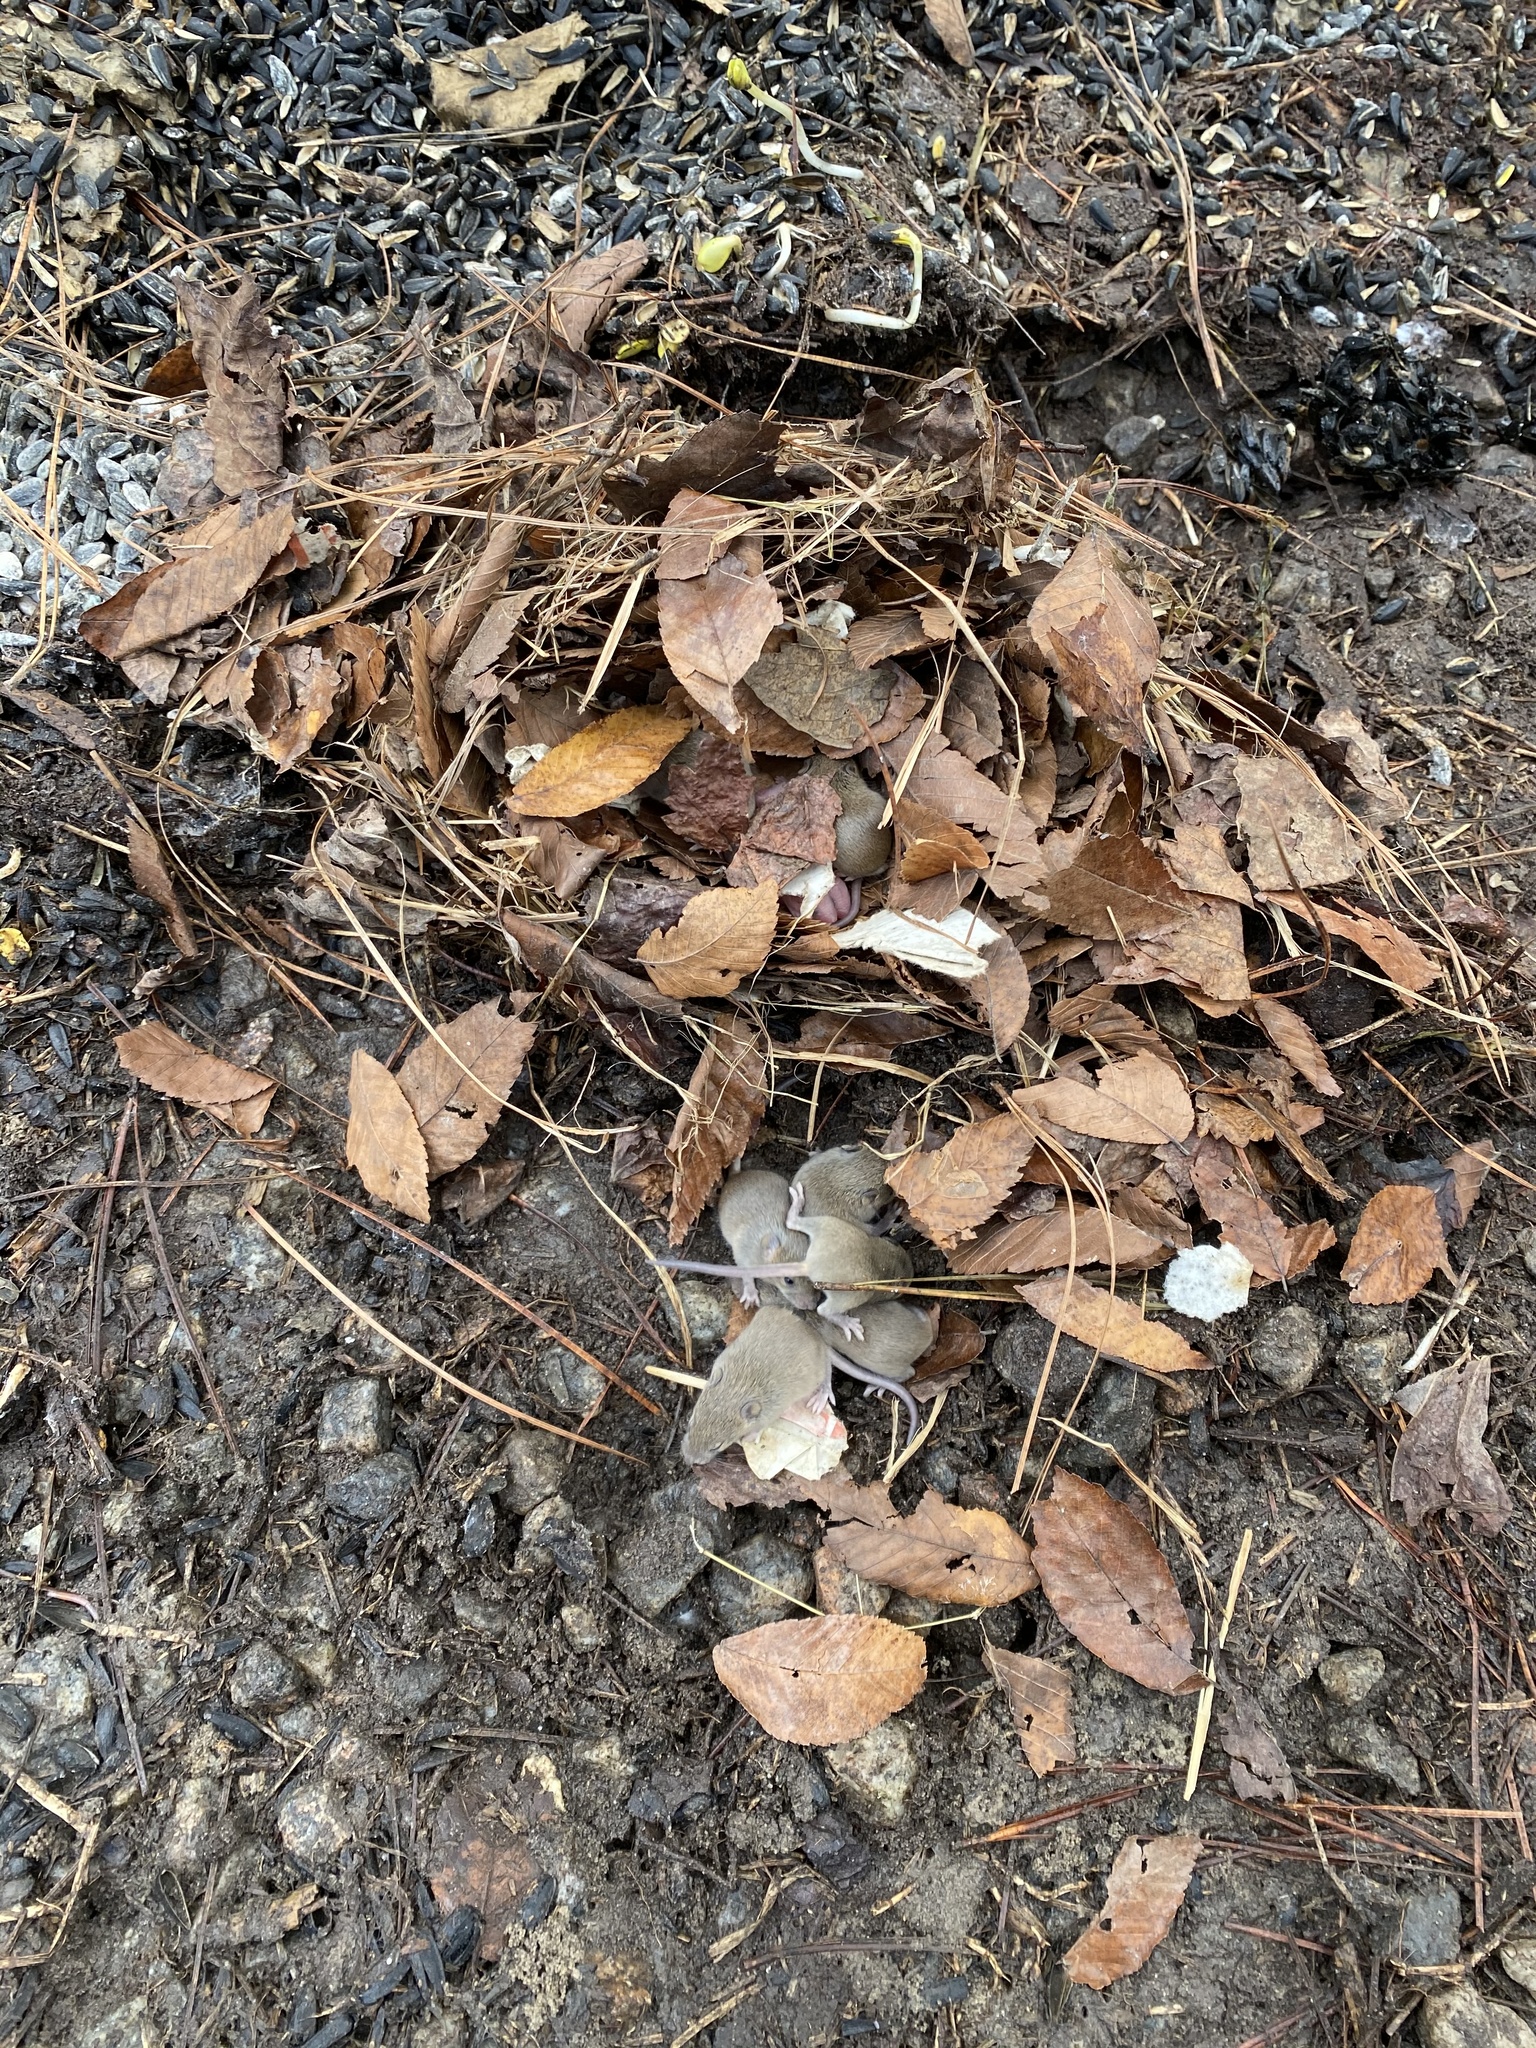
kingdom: Animalia
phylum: Chordata
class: Mammalia
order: Rodentia
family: Muridae
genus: Mus
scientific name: Mus musculus
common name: House mouse
